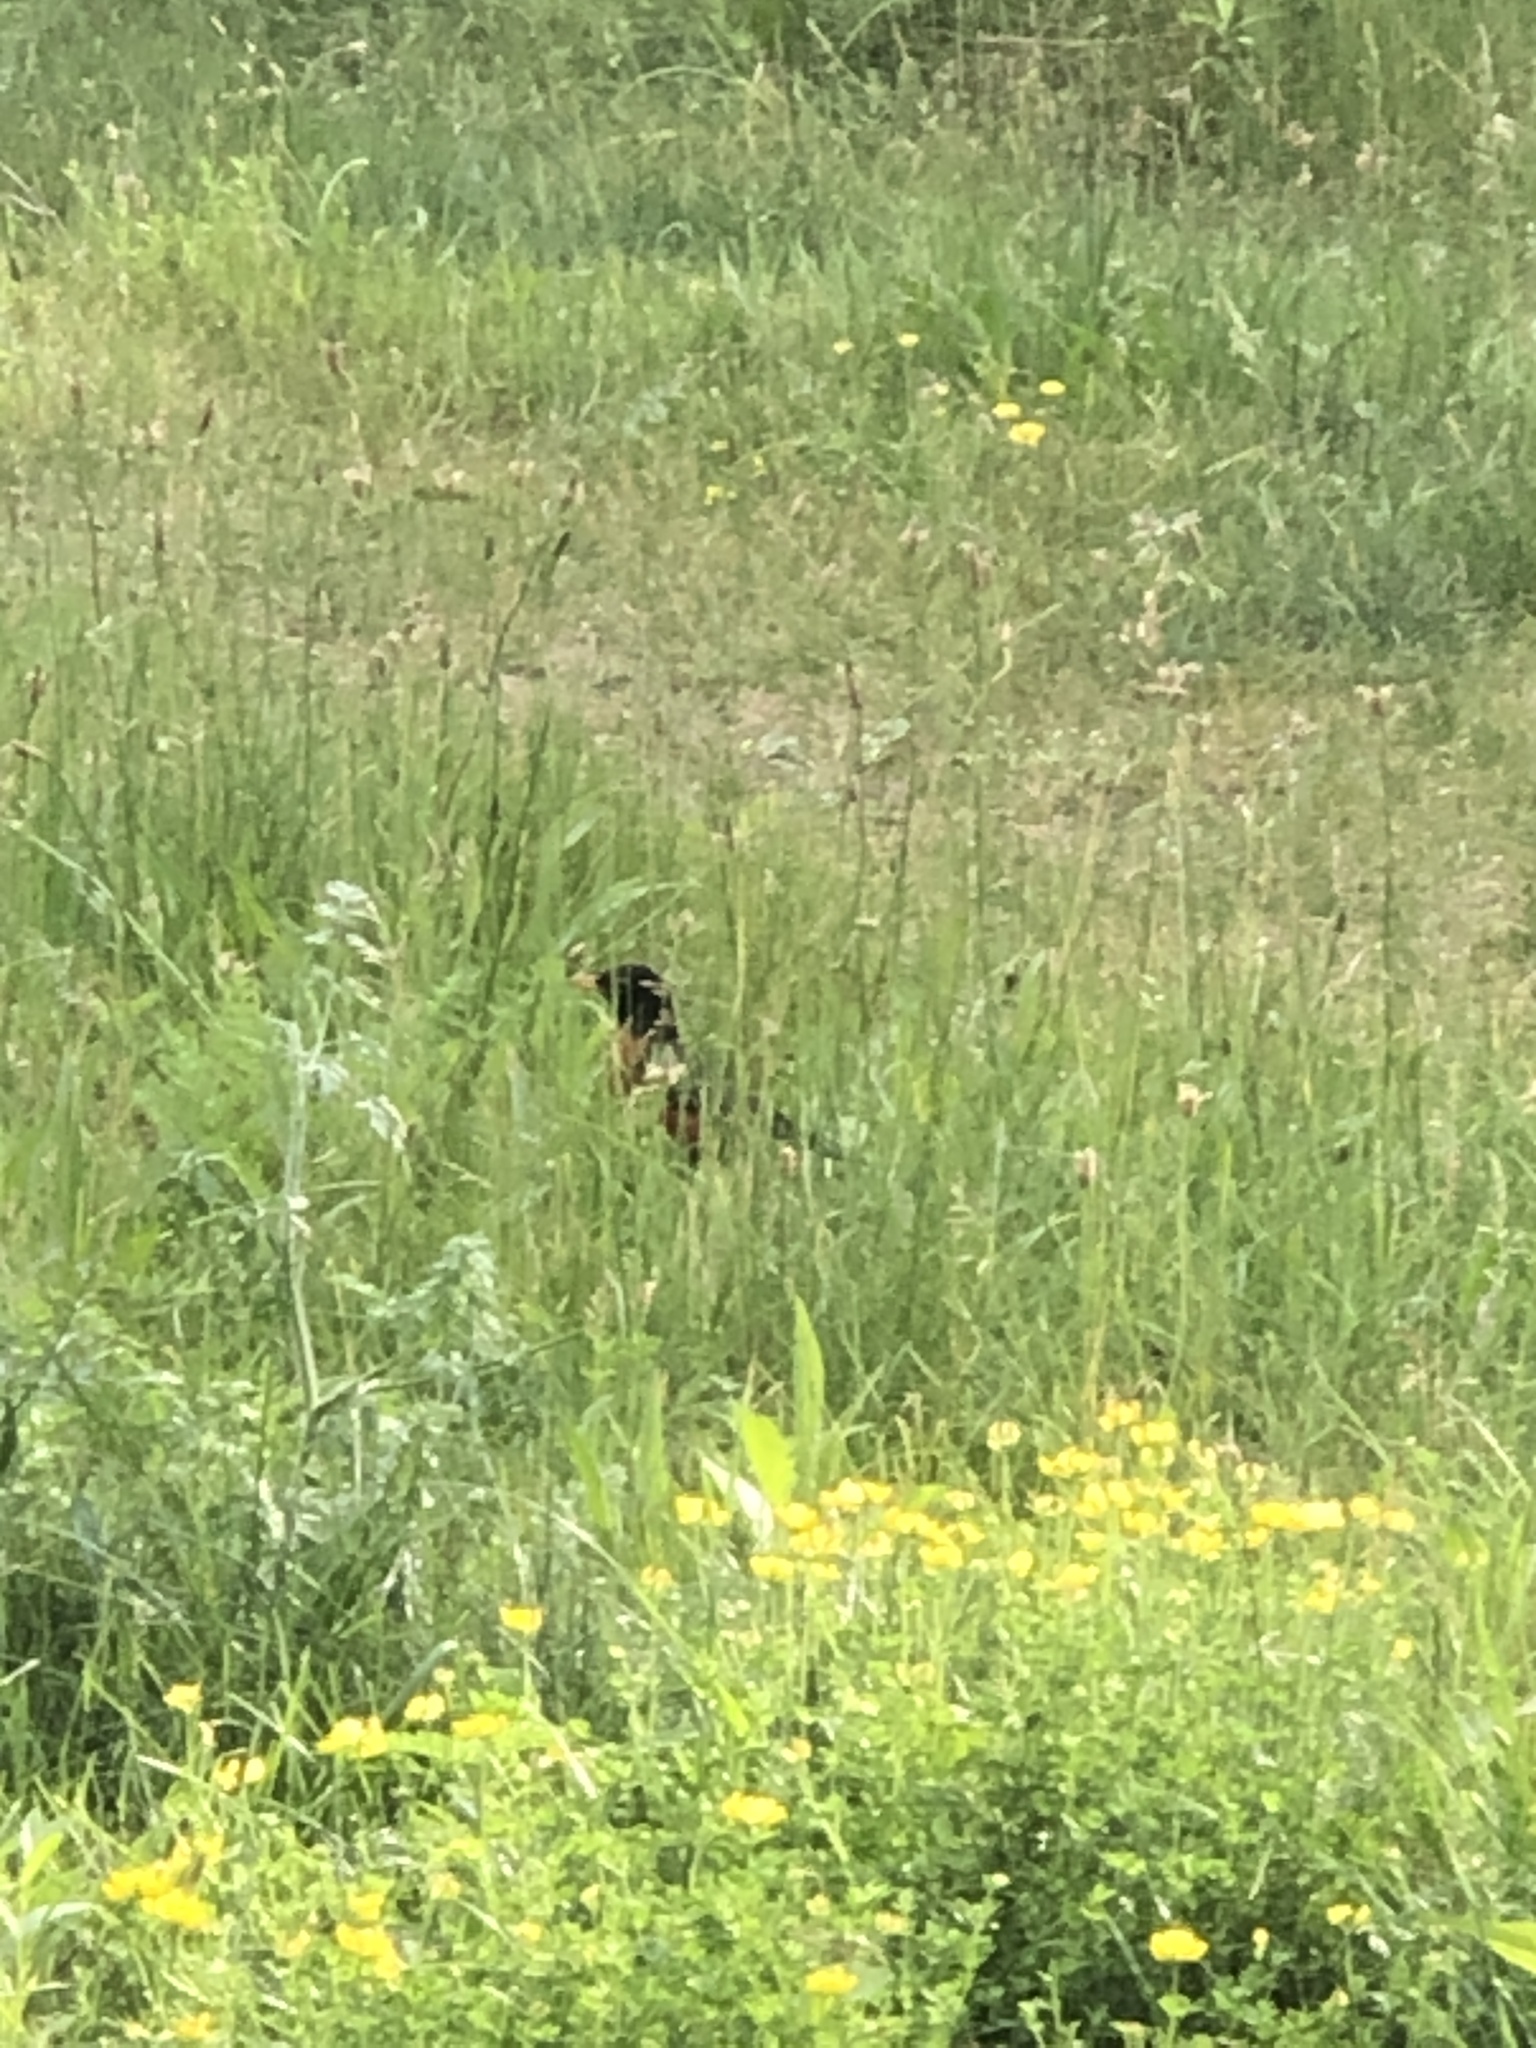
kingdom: Animalia
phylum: Chordata
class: Aves
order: Passeriformes
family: Turdidae
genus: Turdus
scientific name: Turdus migratorius
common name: American robin
